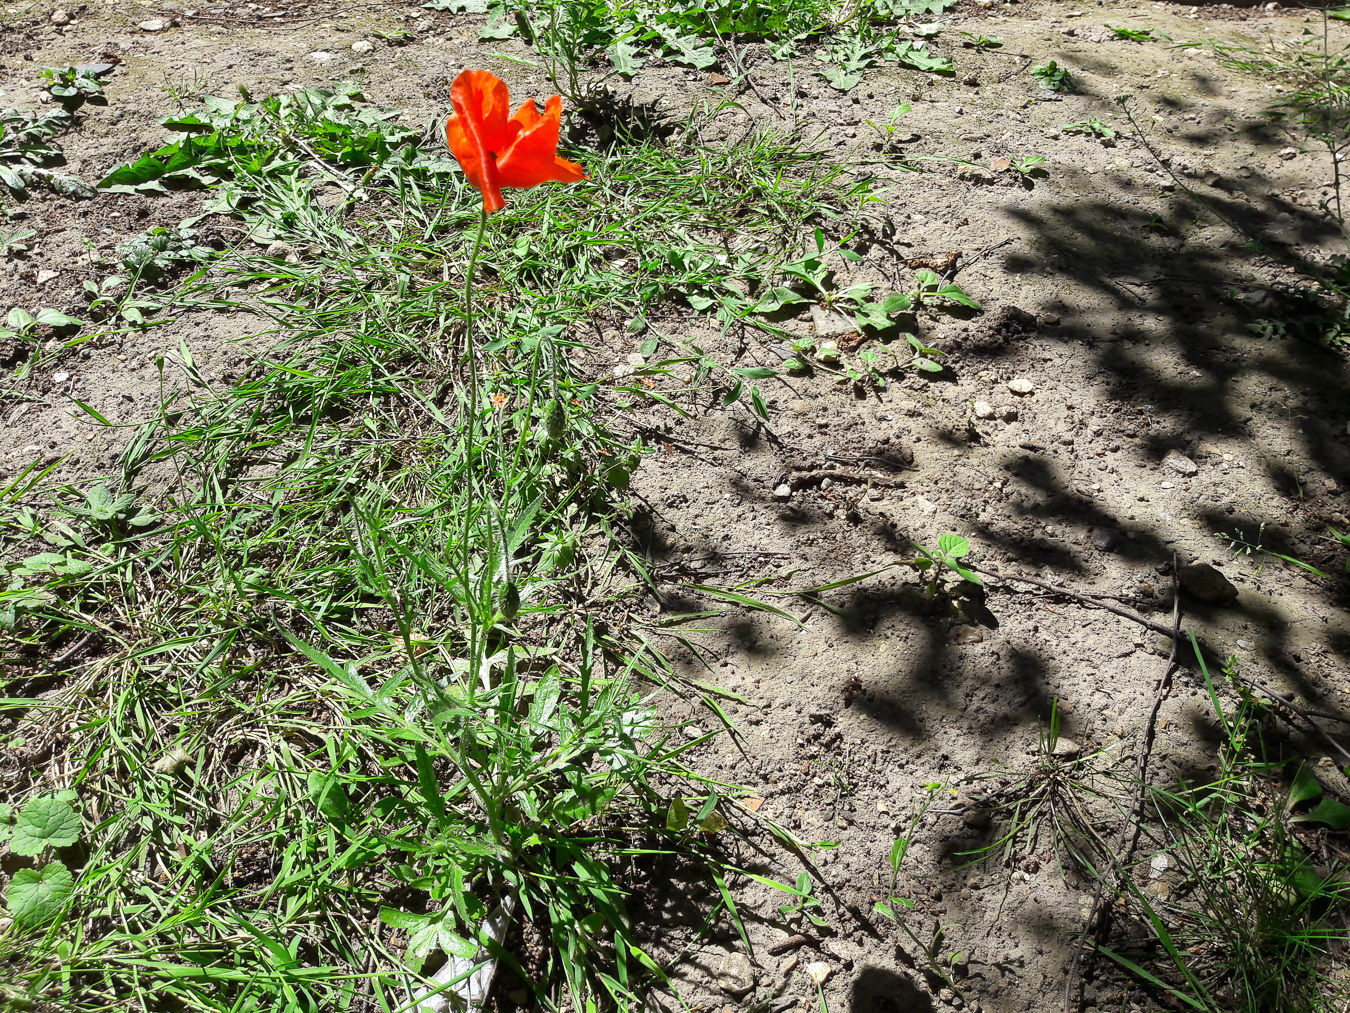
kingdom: Plantae
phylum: Tracheophyta
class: Magnoliopsida
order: Ranunculales
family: Papaveraceae
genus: Papaver
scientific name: Papaver rhoeas
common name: Corn poppy
